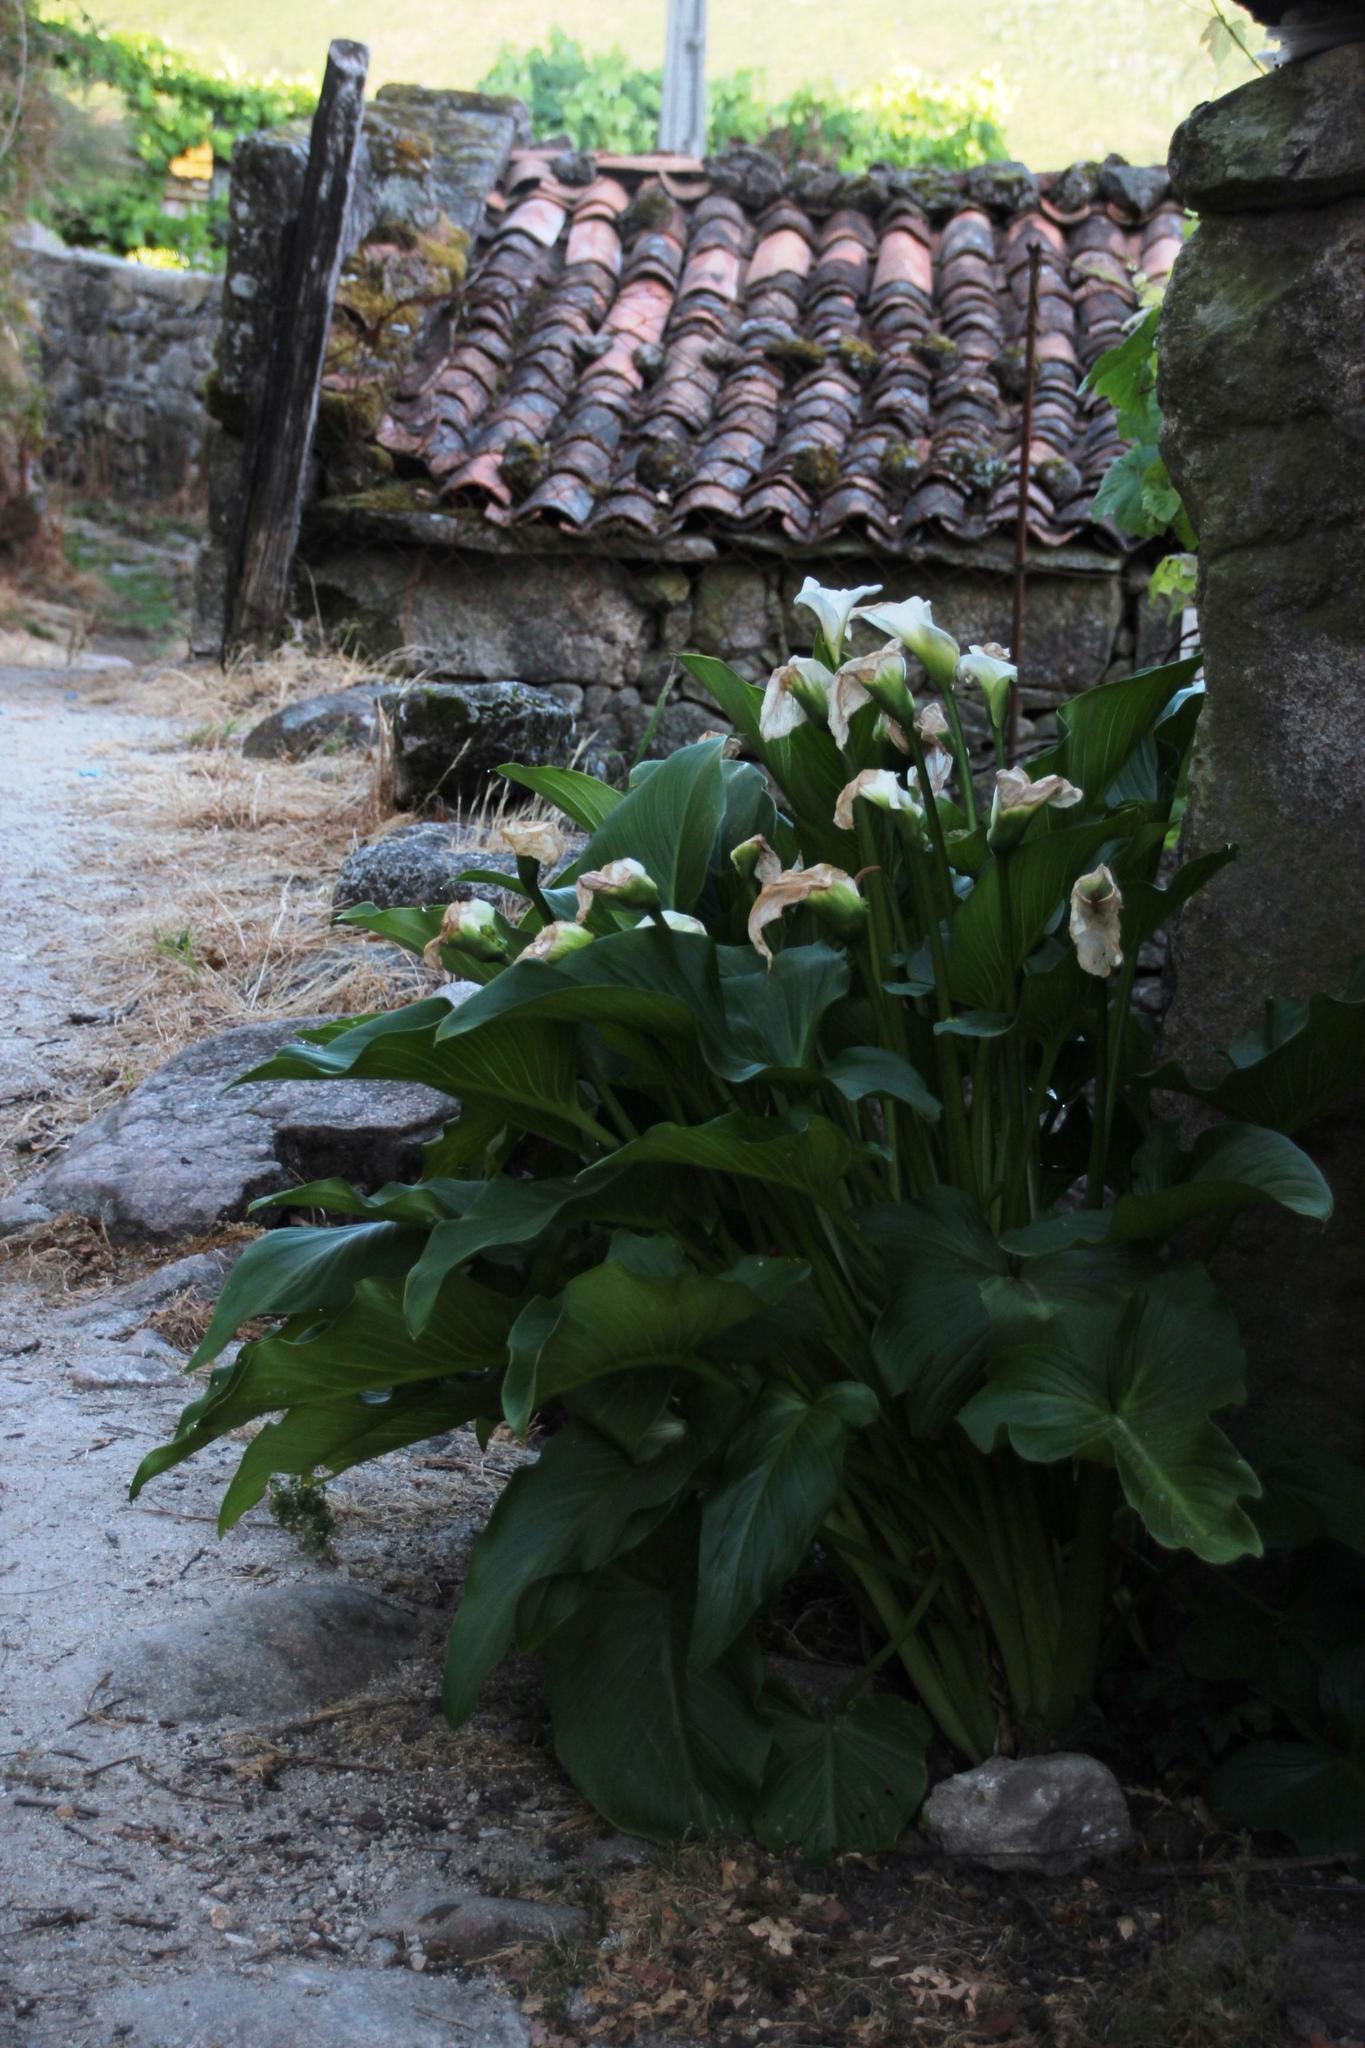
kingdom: Plantae
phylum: Tracheophyta
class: Liliopsida
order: Alismatales
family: Araceae
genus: Zantedeschia
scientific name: Zantedeschia aethiopica
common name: Altar-lily
